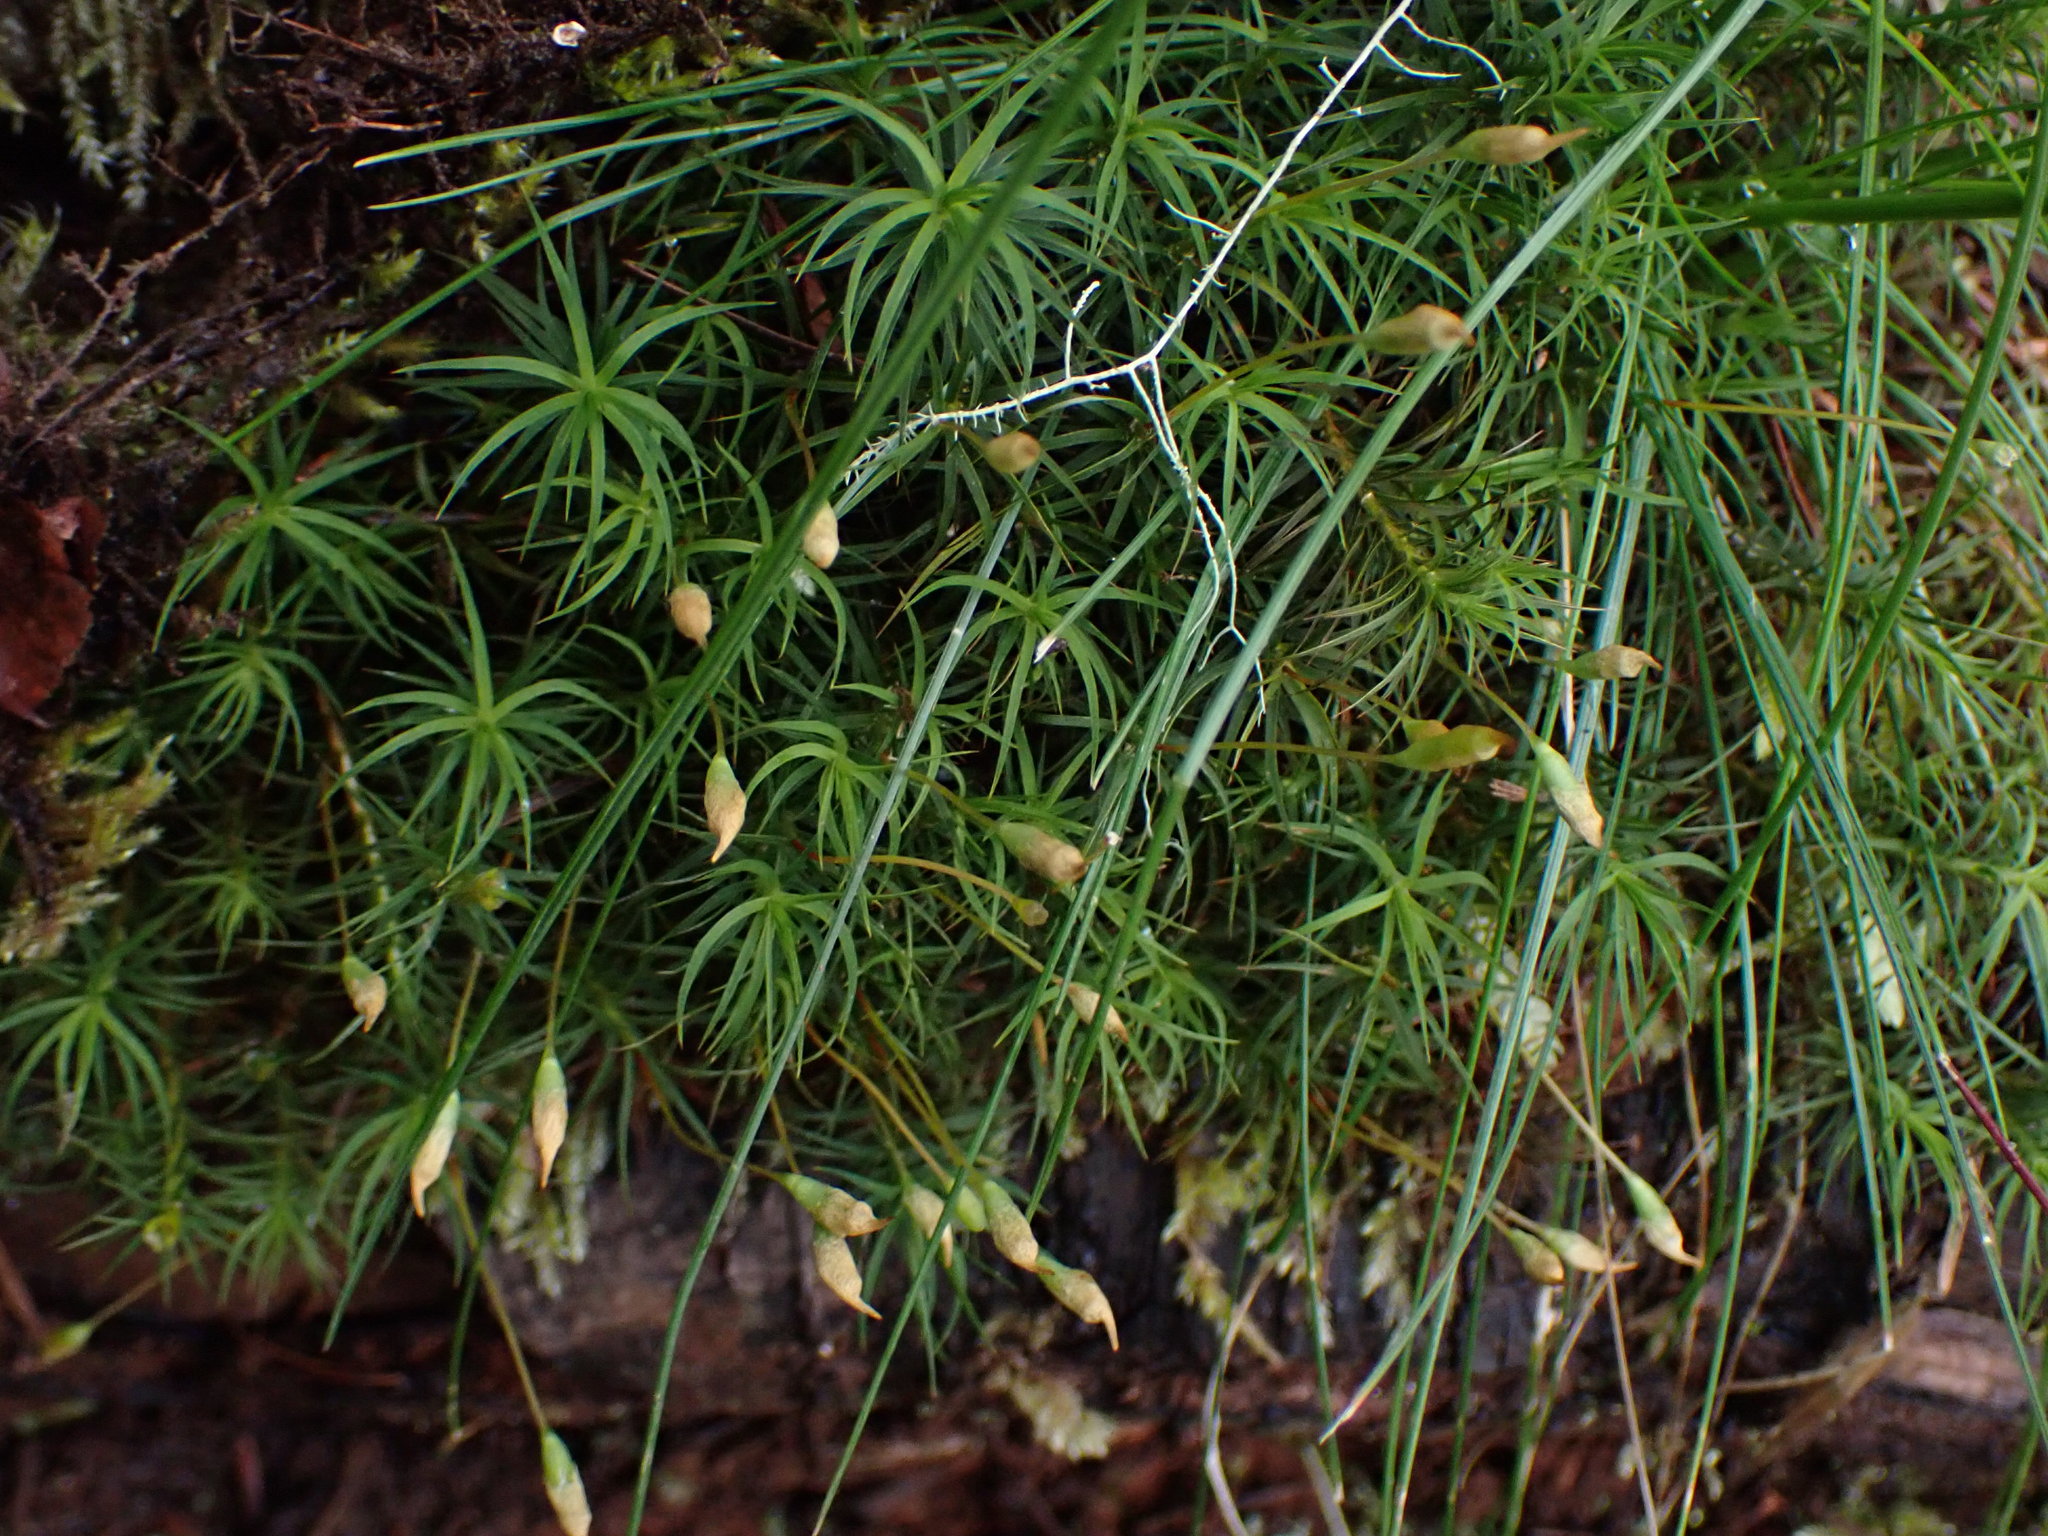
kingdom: Plantae
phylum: Bryophyta
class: Polytrichopsida
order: Polytrichales
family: Polytrichaceae
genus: Polytrichastrum
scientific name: Polytrichastrum alpinum
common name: Alpine haircap
